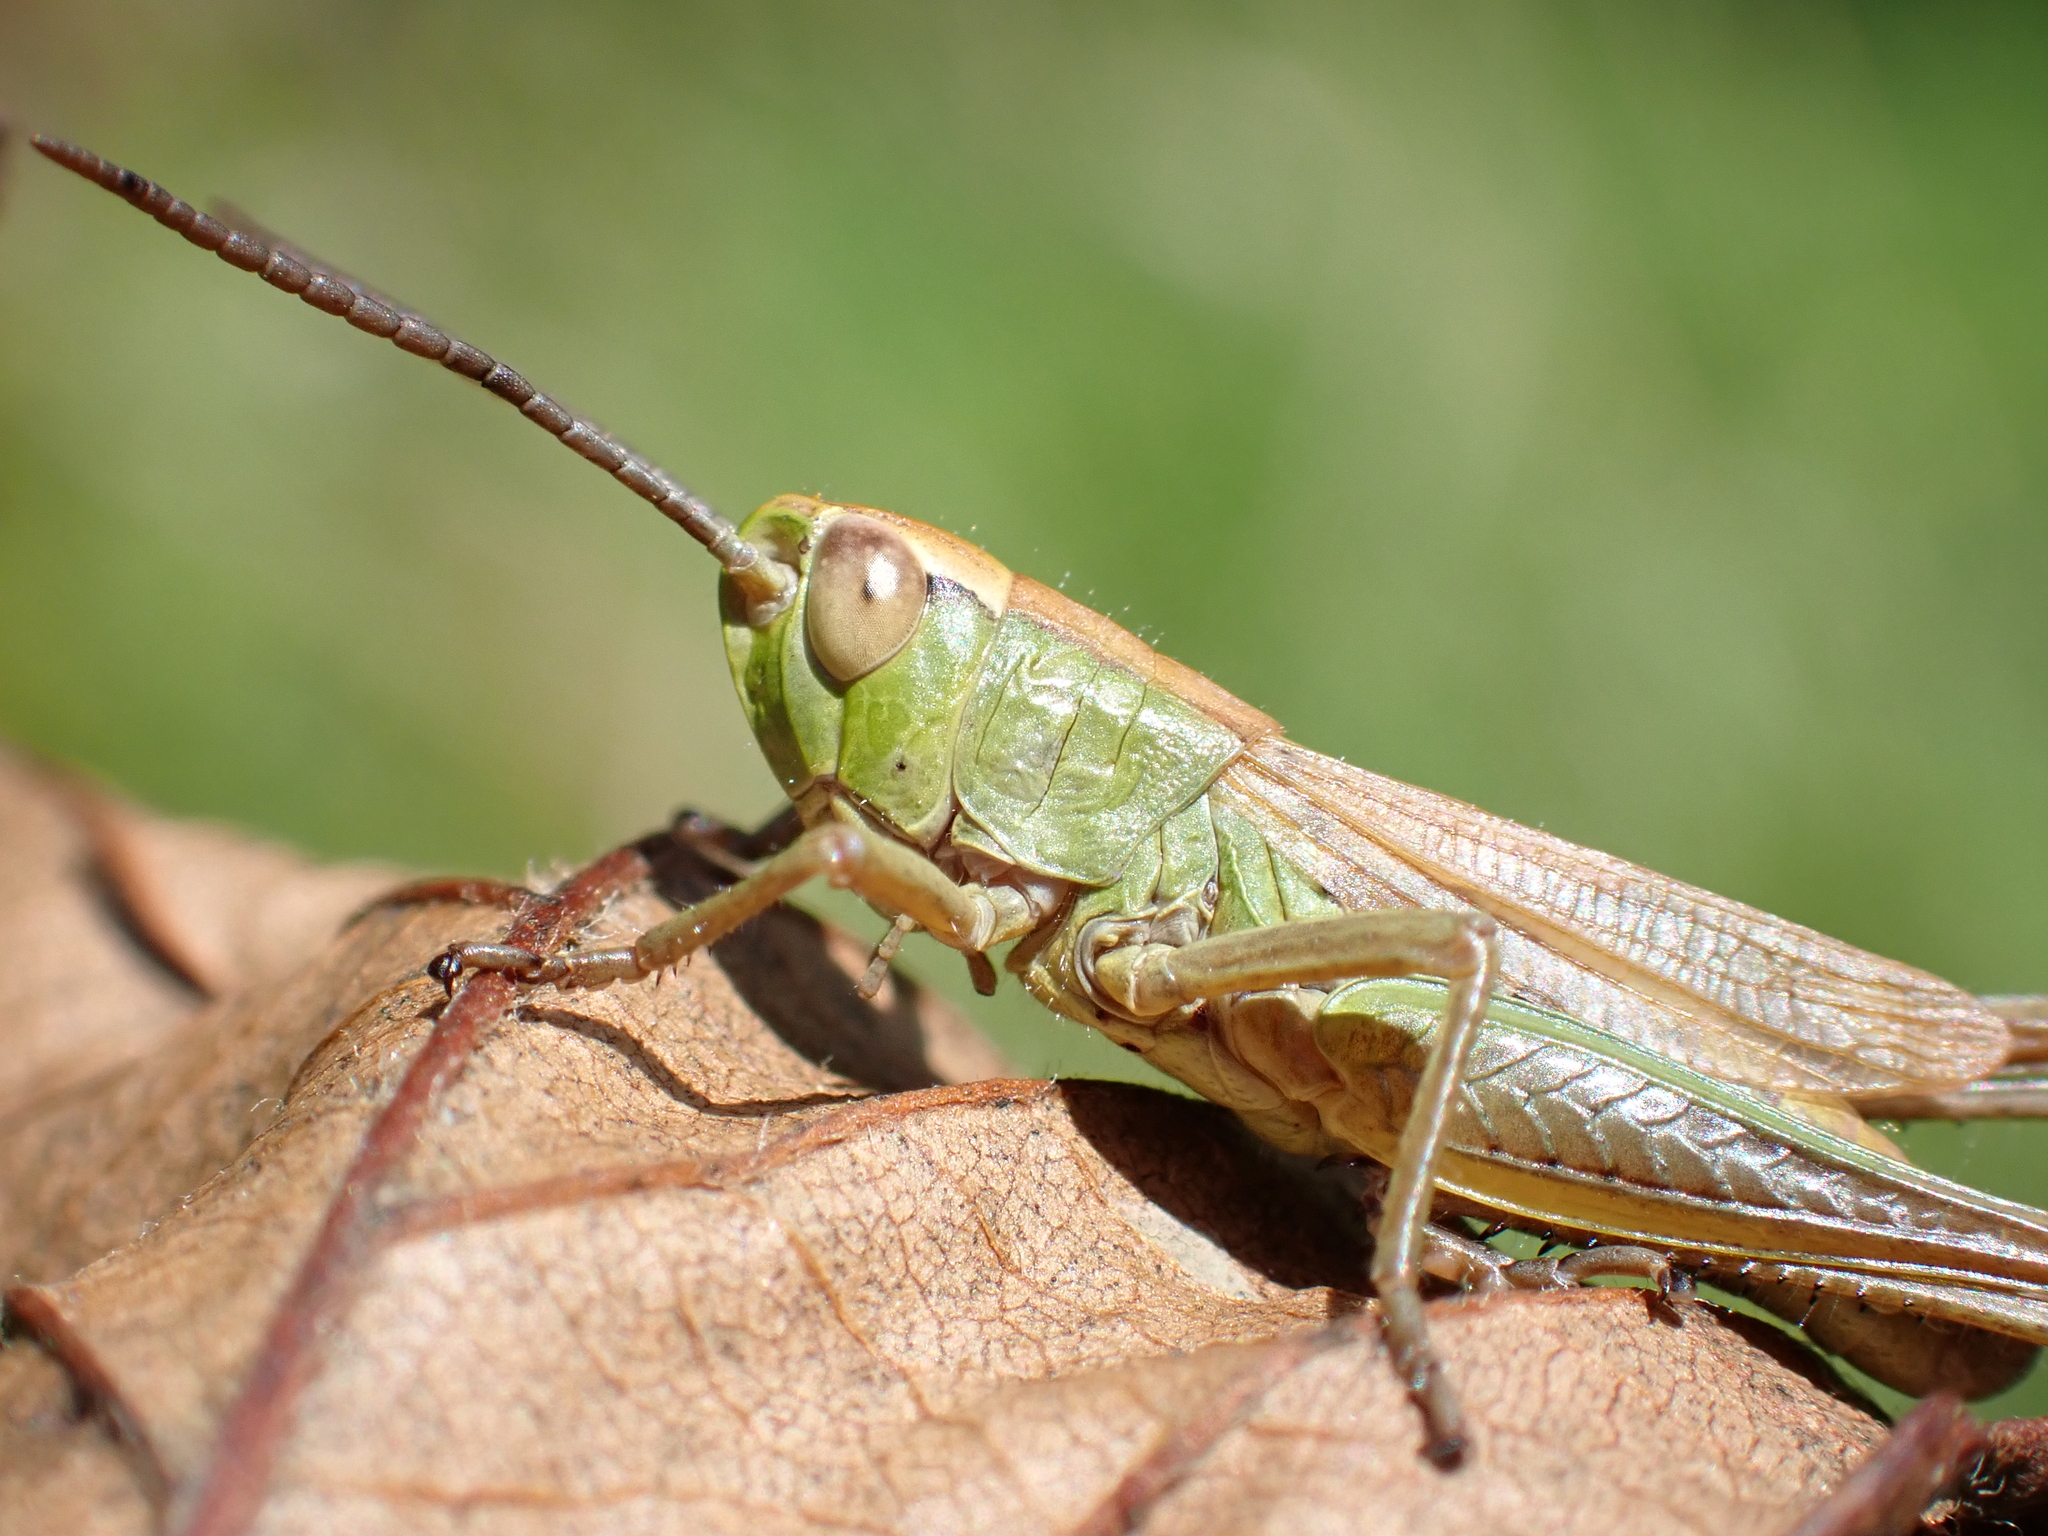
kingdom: Animalia
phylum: Arthropoda
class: Insecta
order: Orthoptera
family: Acrididae
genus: Pseudochorthippus
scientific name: Pseudochorthippus parallelus
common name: Meadow grasshopper
